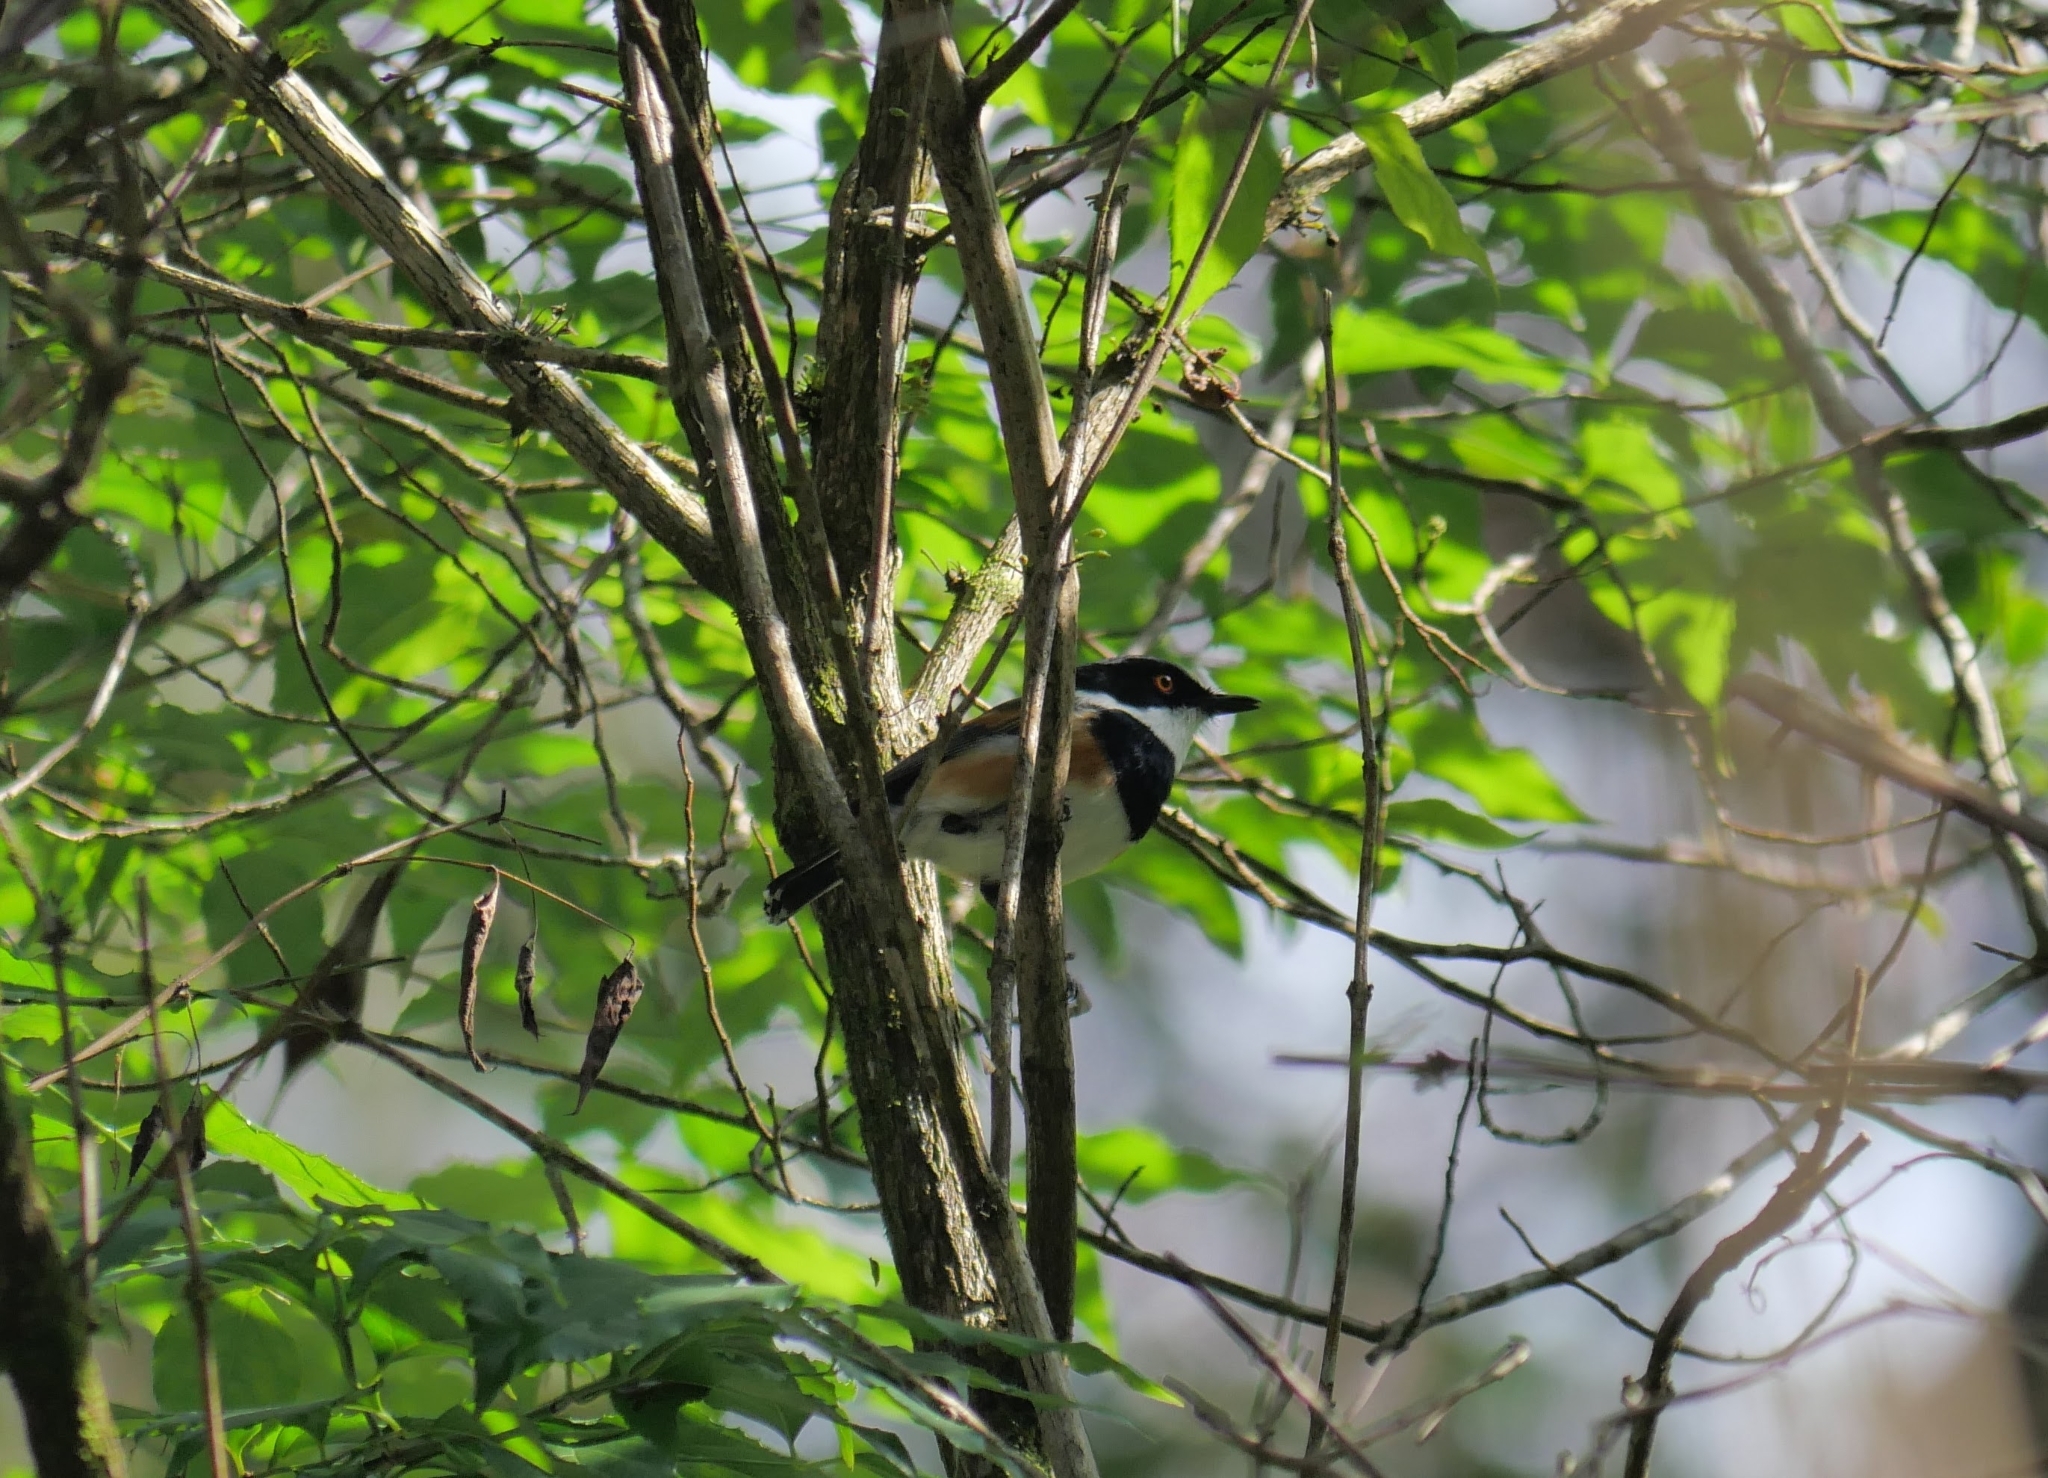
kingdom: Animalia
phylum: Chordata
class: Aves
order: Passeriformes
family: Platysteiridae
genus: Batis
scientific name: Batis capensis
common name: Cape batis
